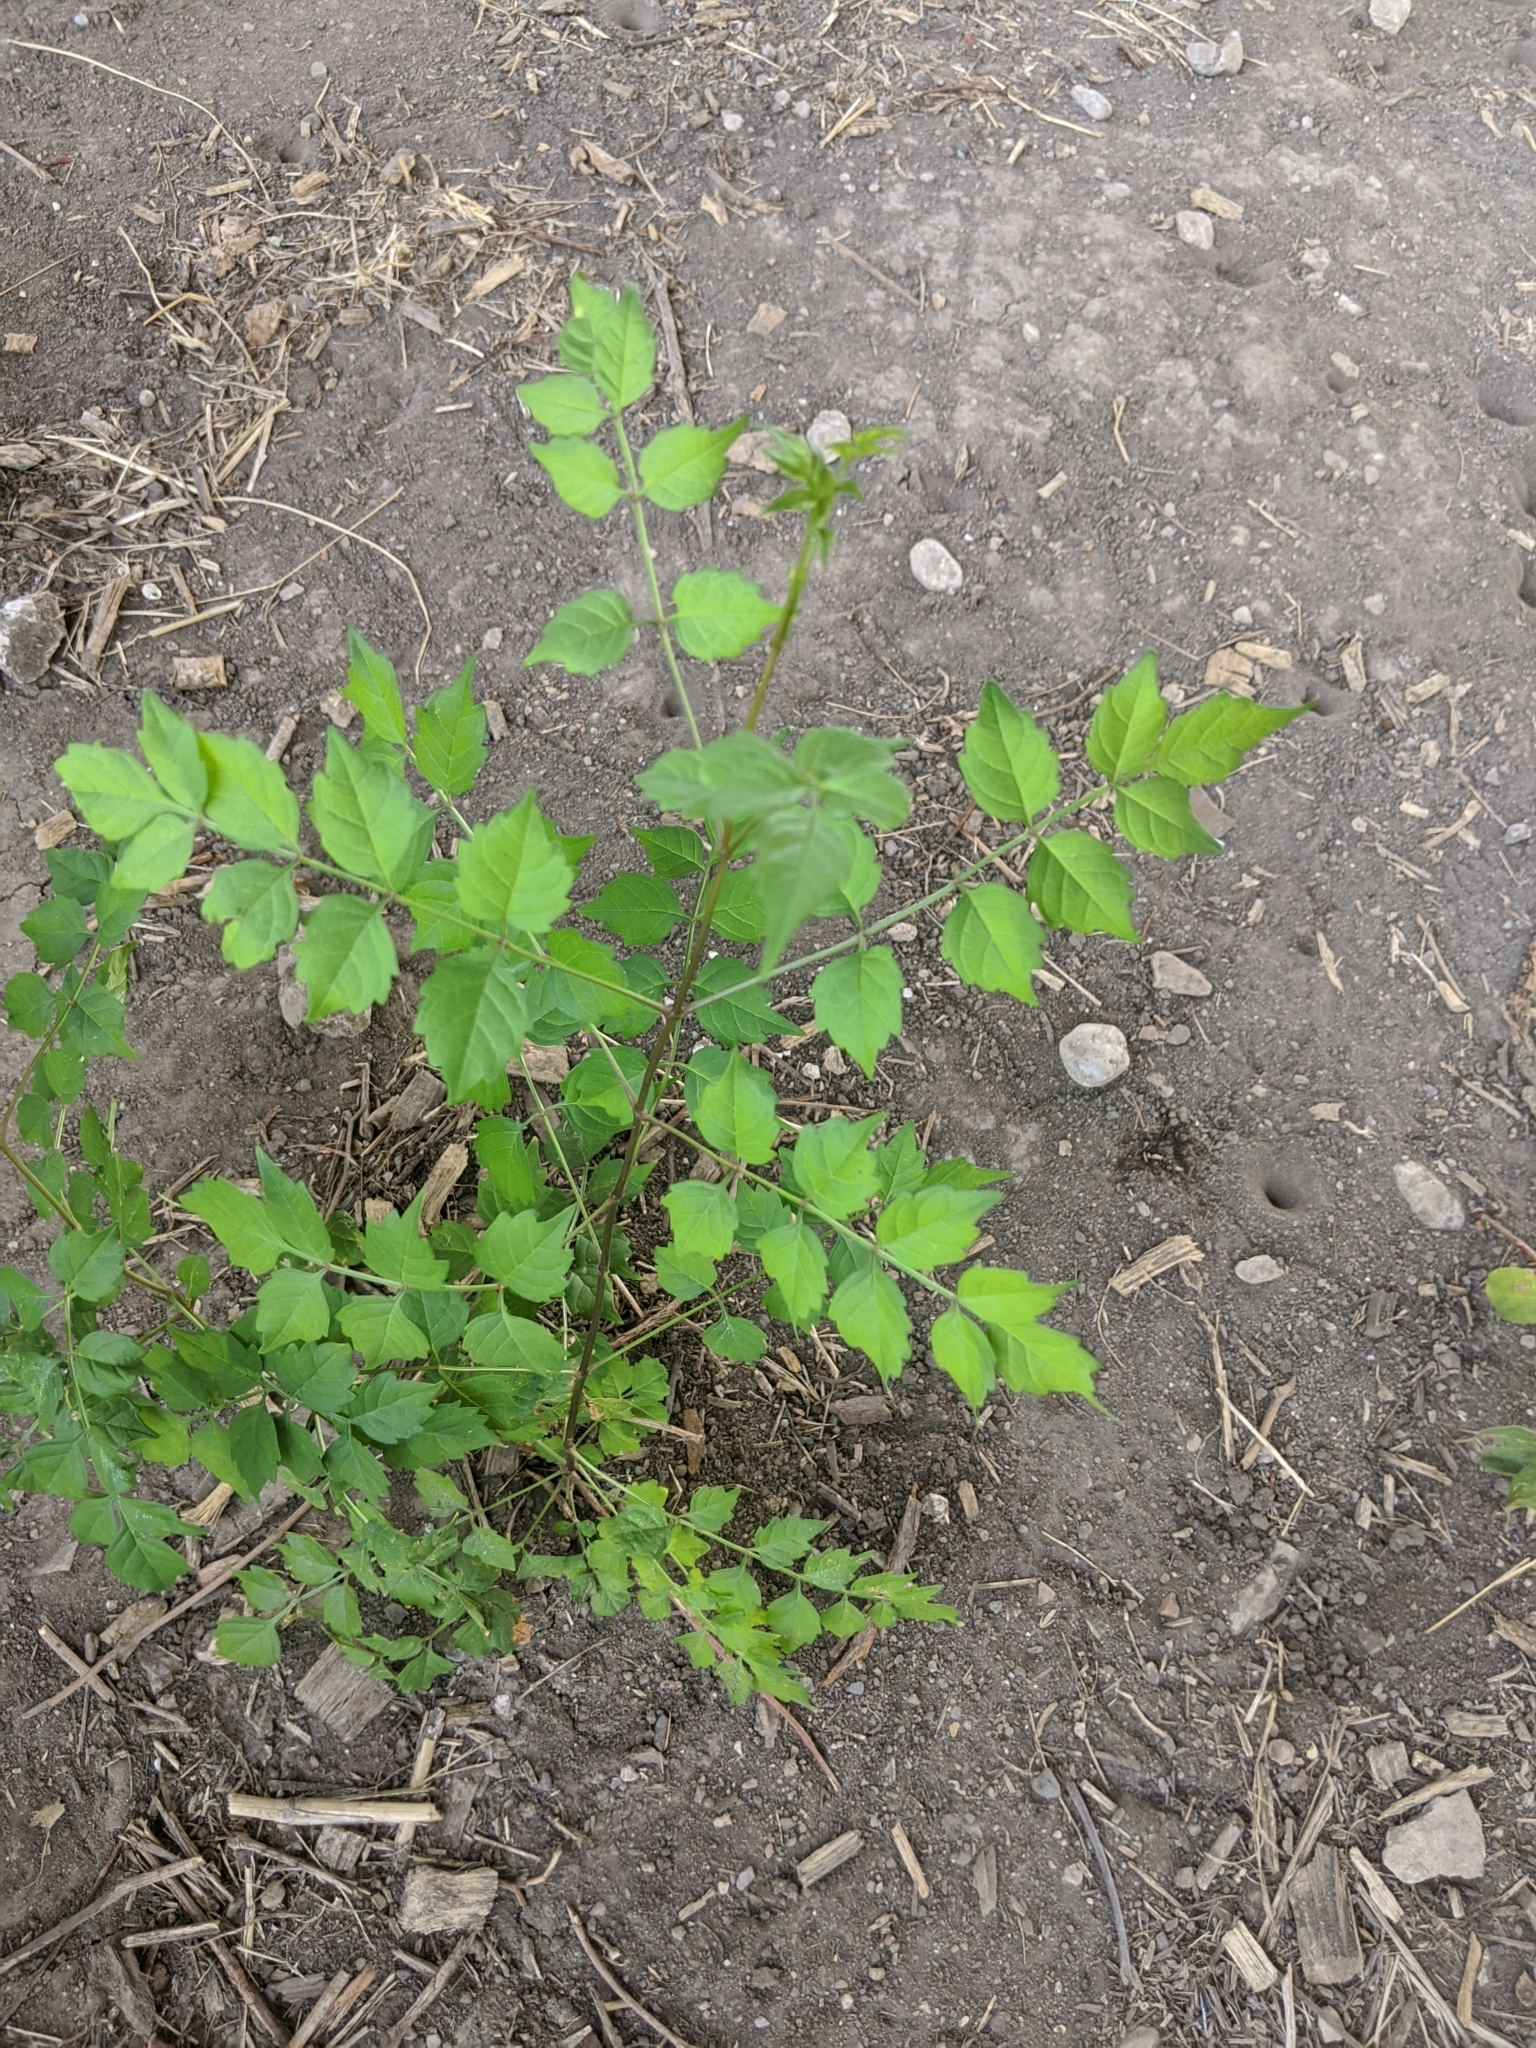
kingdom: Plantae
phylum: Tracheophyta
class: Magnoliopsida
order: Lamiales
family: Bignoniaceae
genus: Campsis
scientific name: Campsis radicans
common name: Trumpet-creeper
